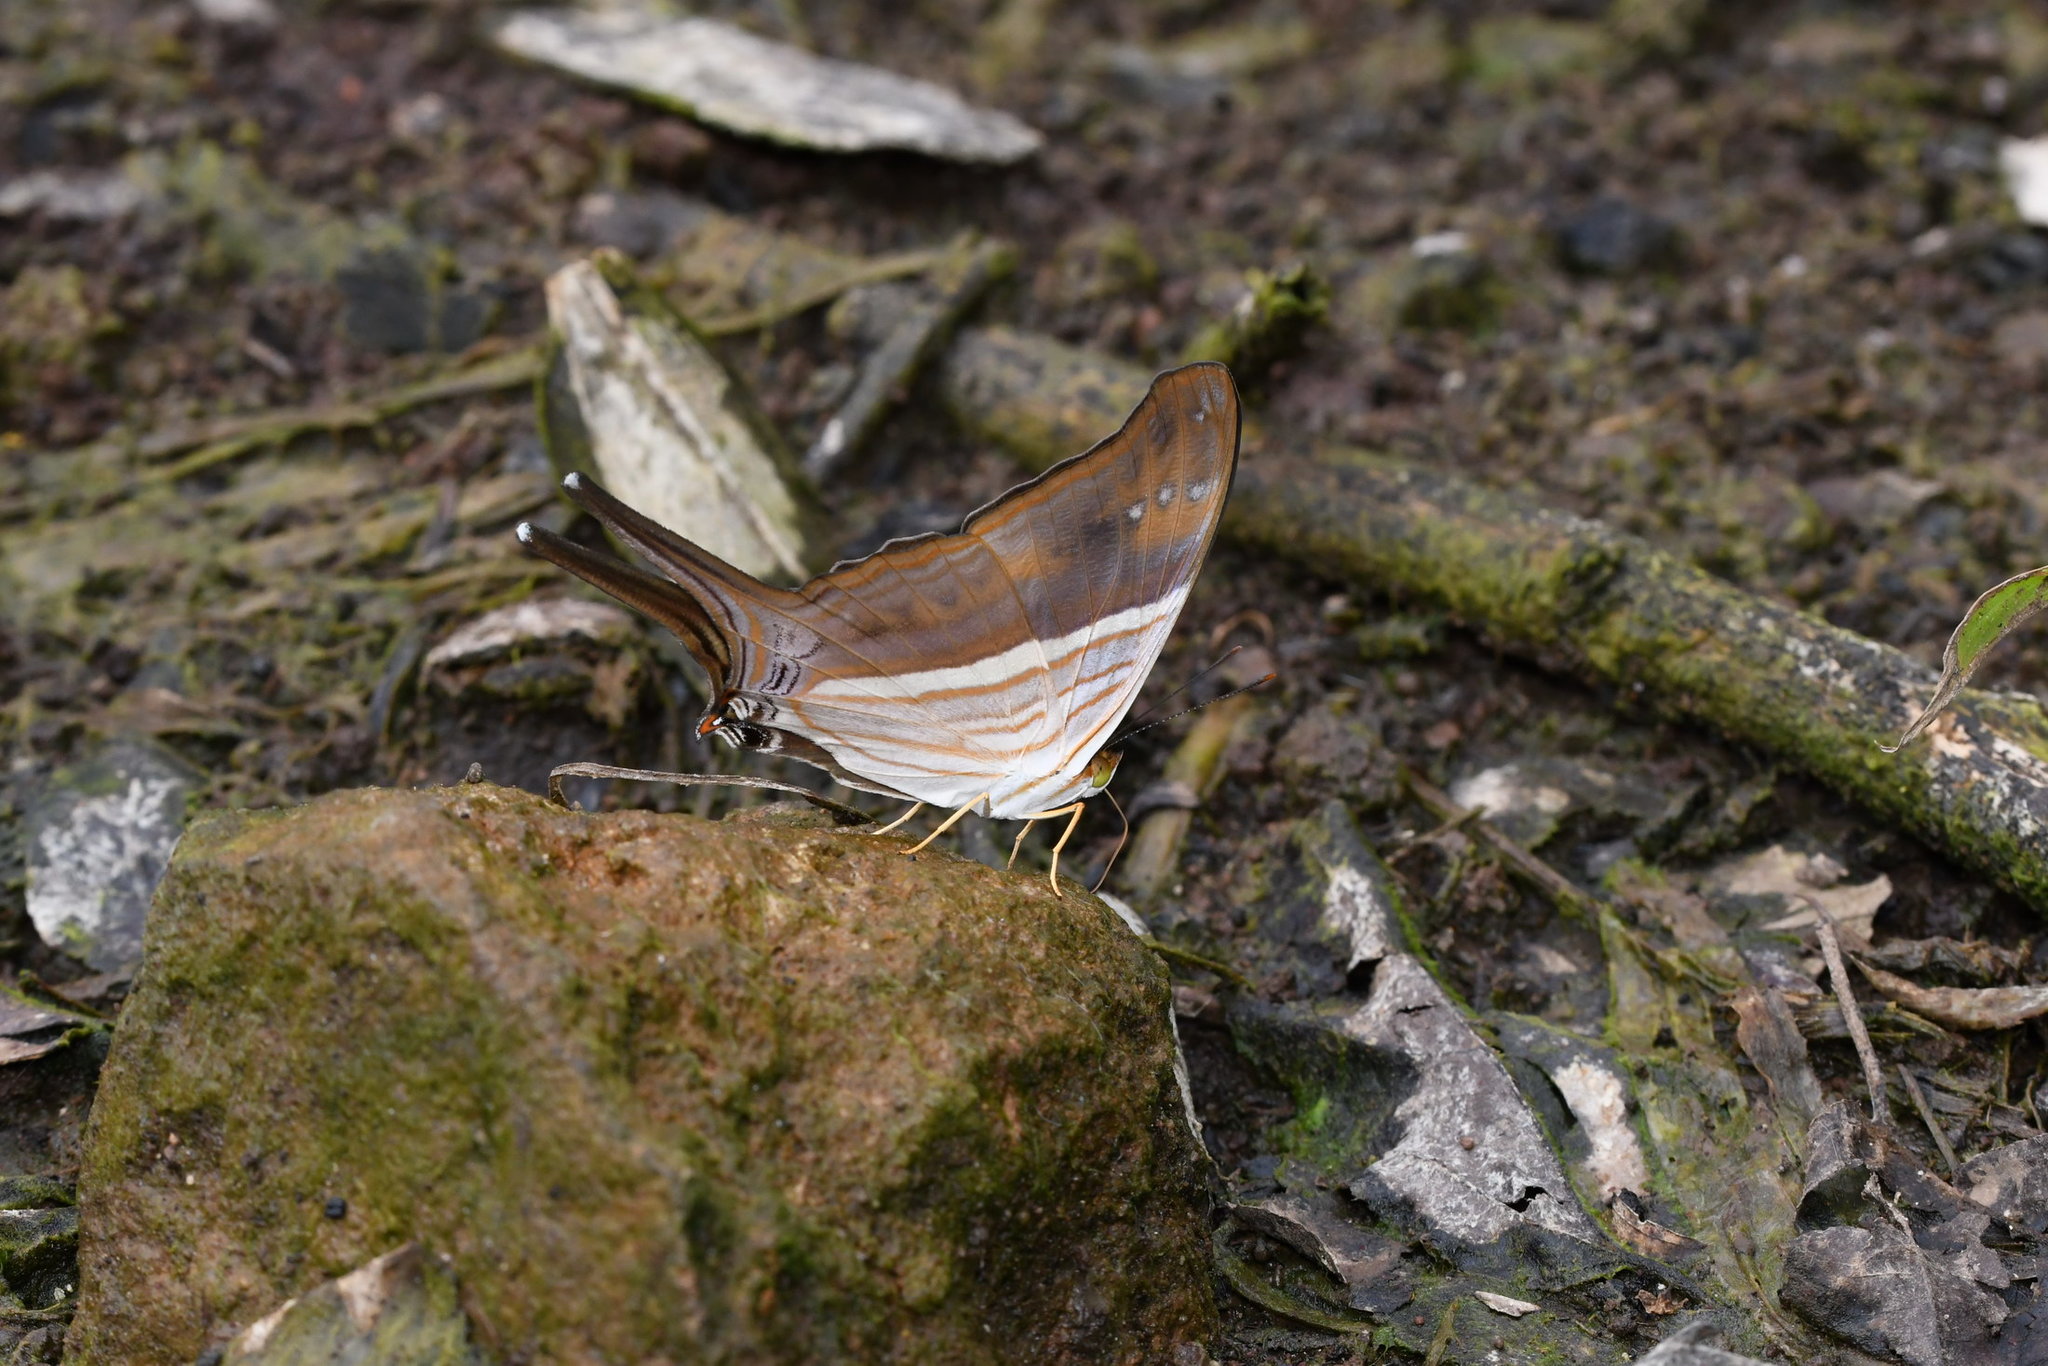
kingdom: Animalia
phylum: Arthropoda
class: Insecta
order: Lepidoptera
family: Nymphalidae
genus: Marpesia
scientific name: Marpesia chiron
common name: Many-banded daggerwing
